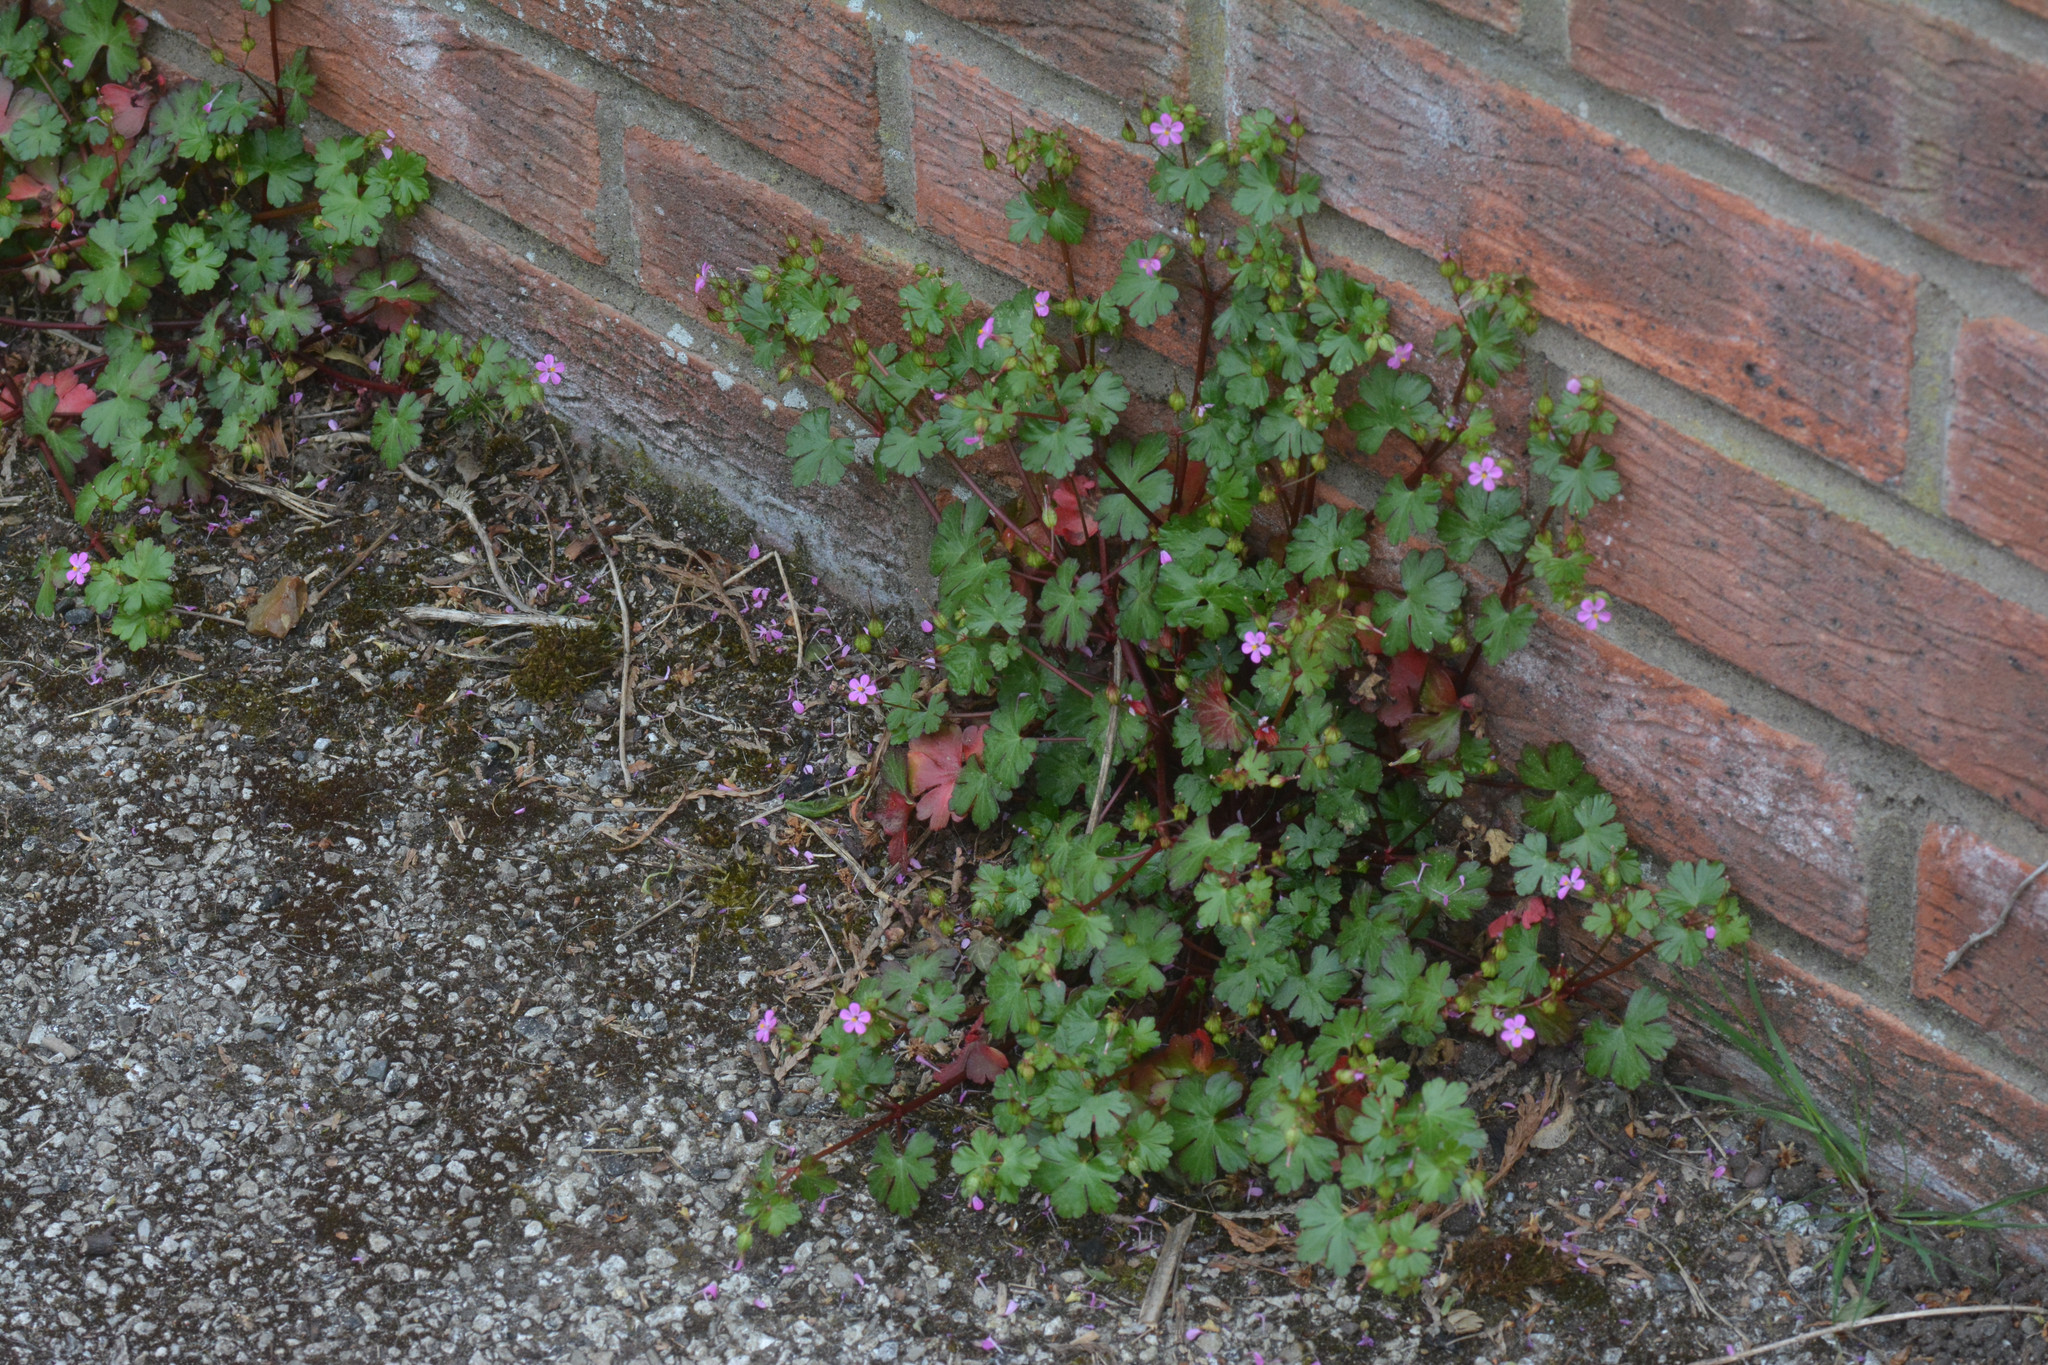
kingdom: Plantae
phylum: Tracheophyta
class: Magnoliopsida
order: Geraniales
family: Geraniaceae
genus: Geranium
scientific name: Geranium lucidum
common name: Shining crane's-bill
